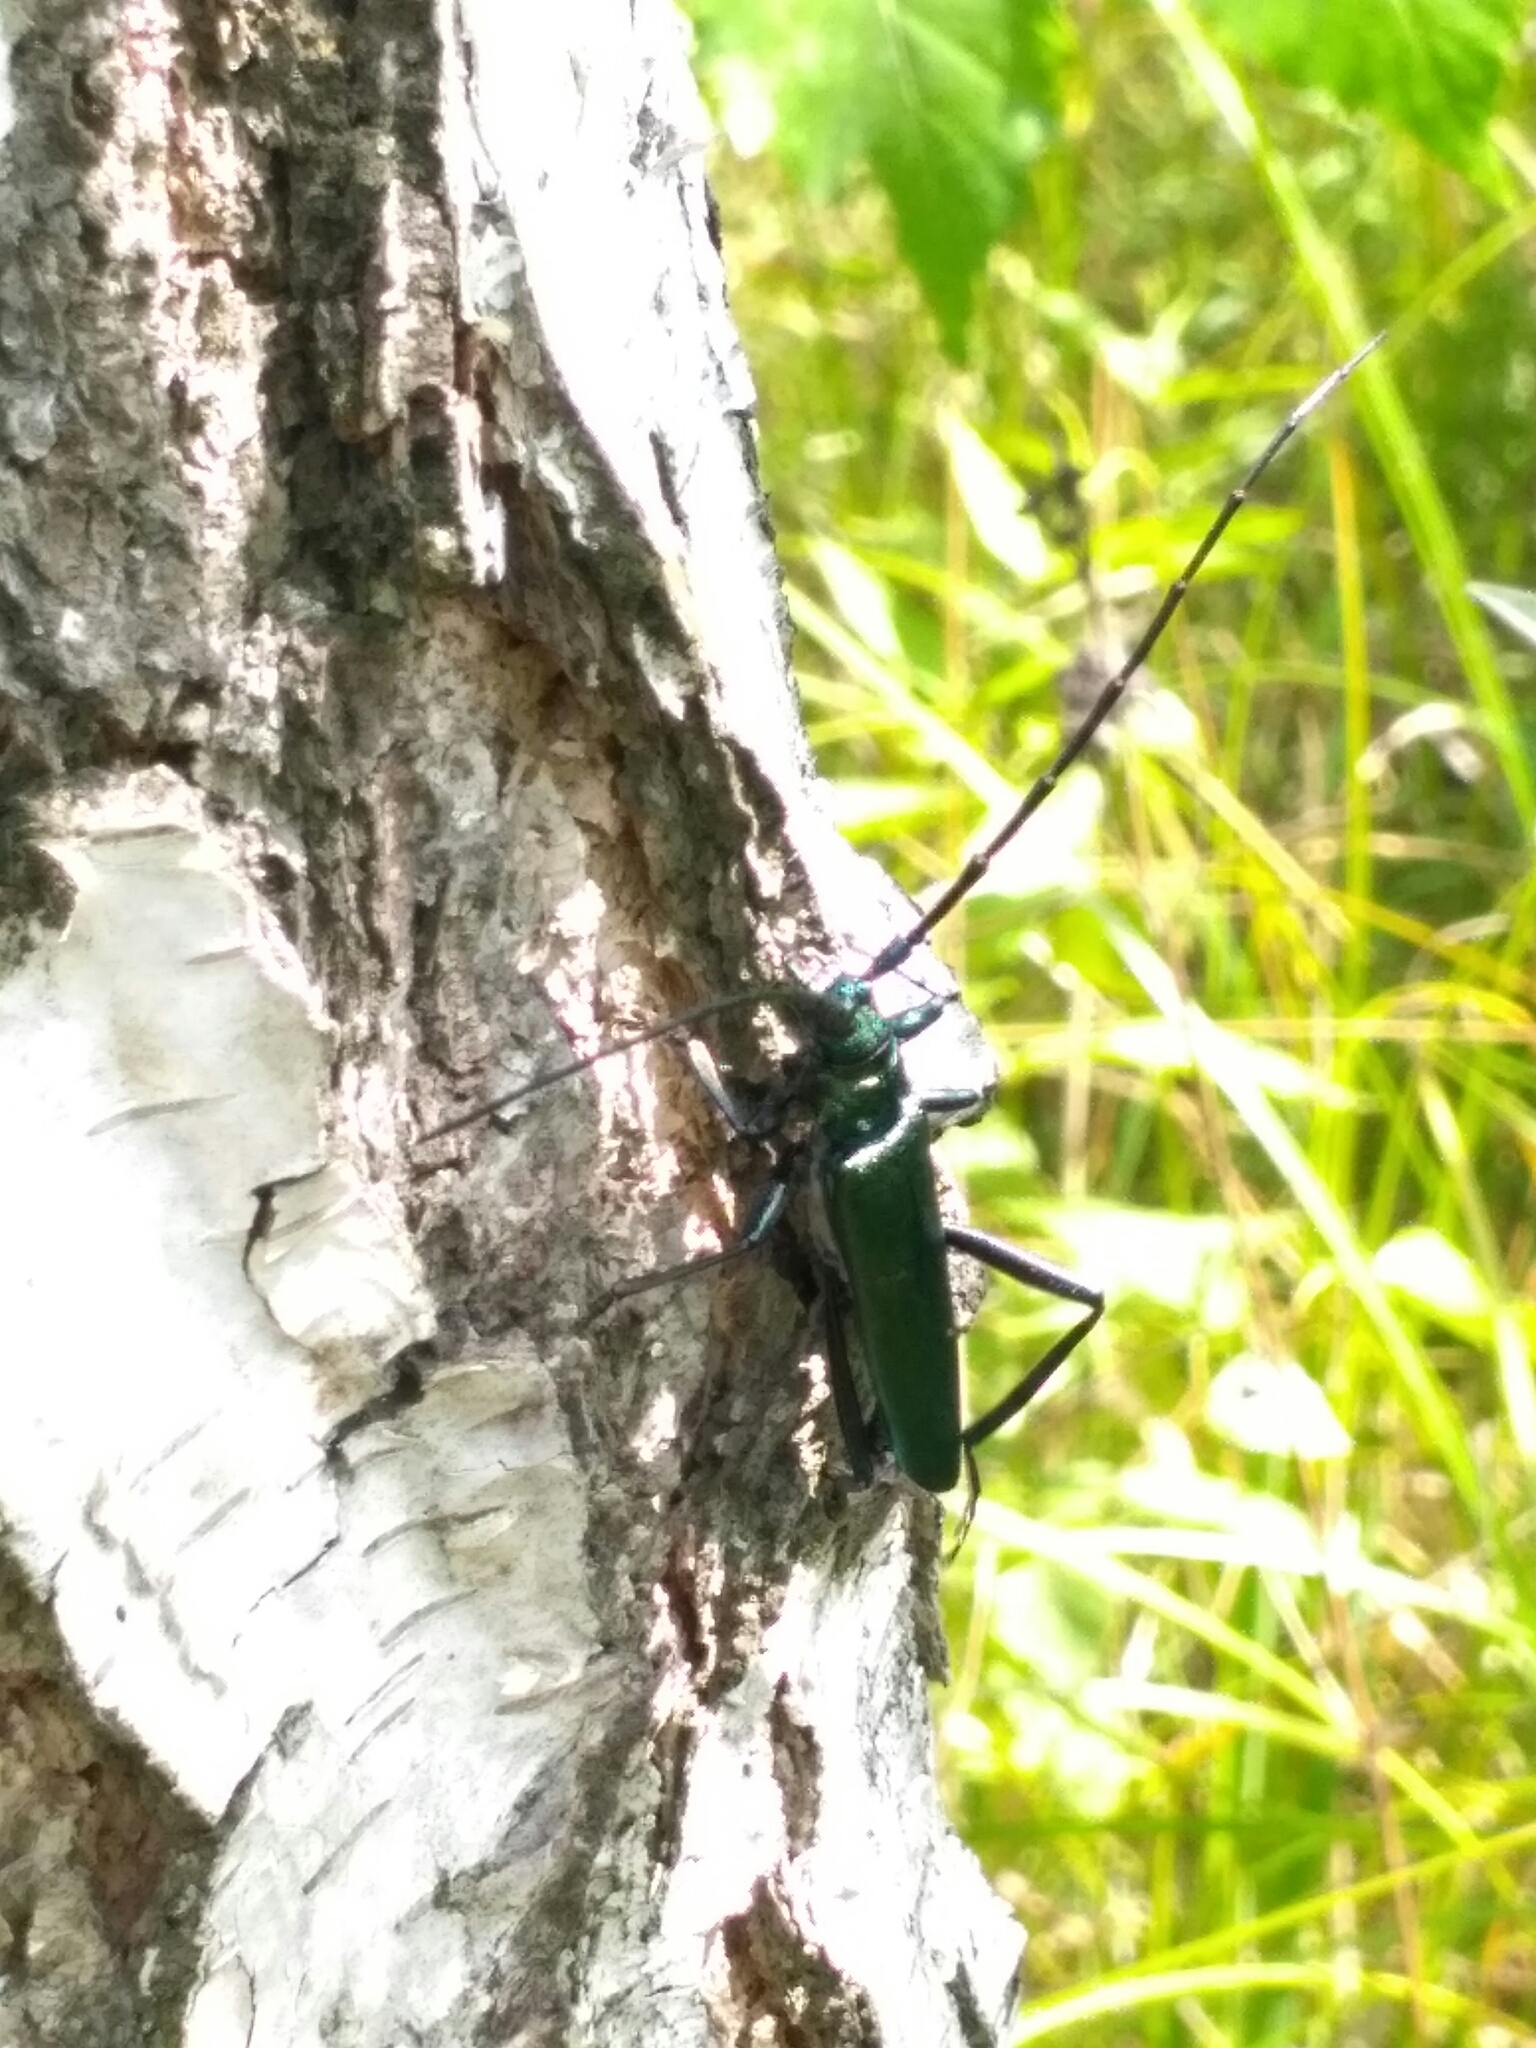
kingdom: Animalia
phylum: Arthropoda
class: Insecta
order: Coleoptera
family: Cerambycidae
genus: Aromia
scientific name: Aromia moschata
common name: Musk beetle
